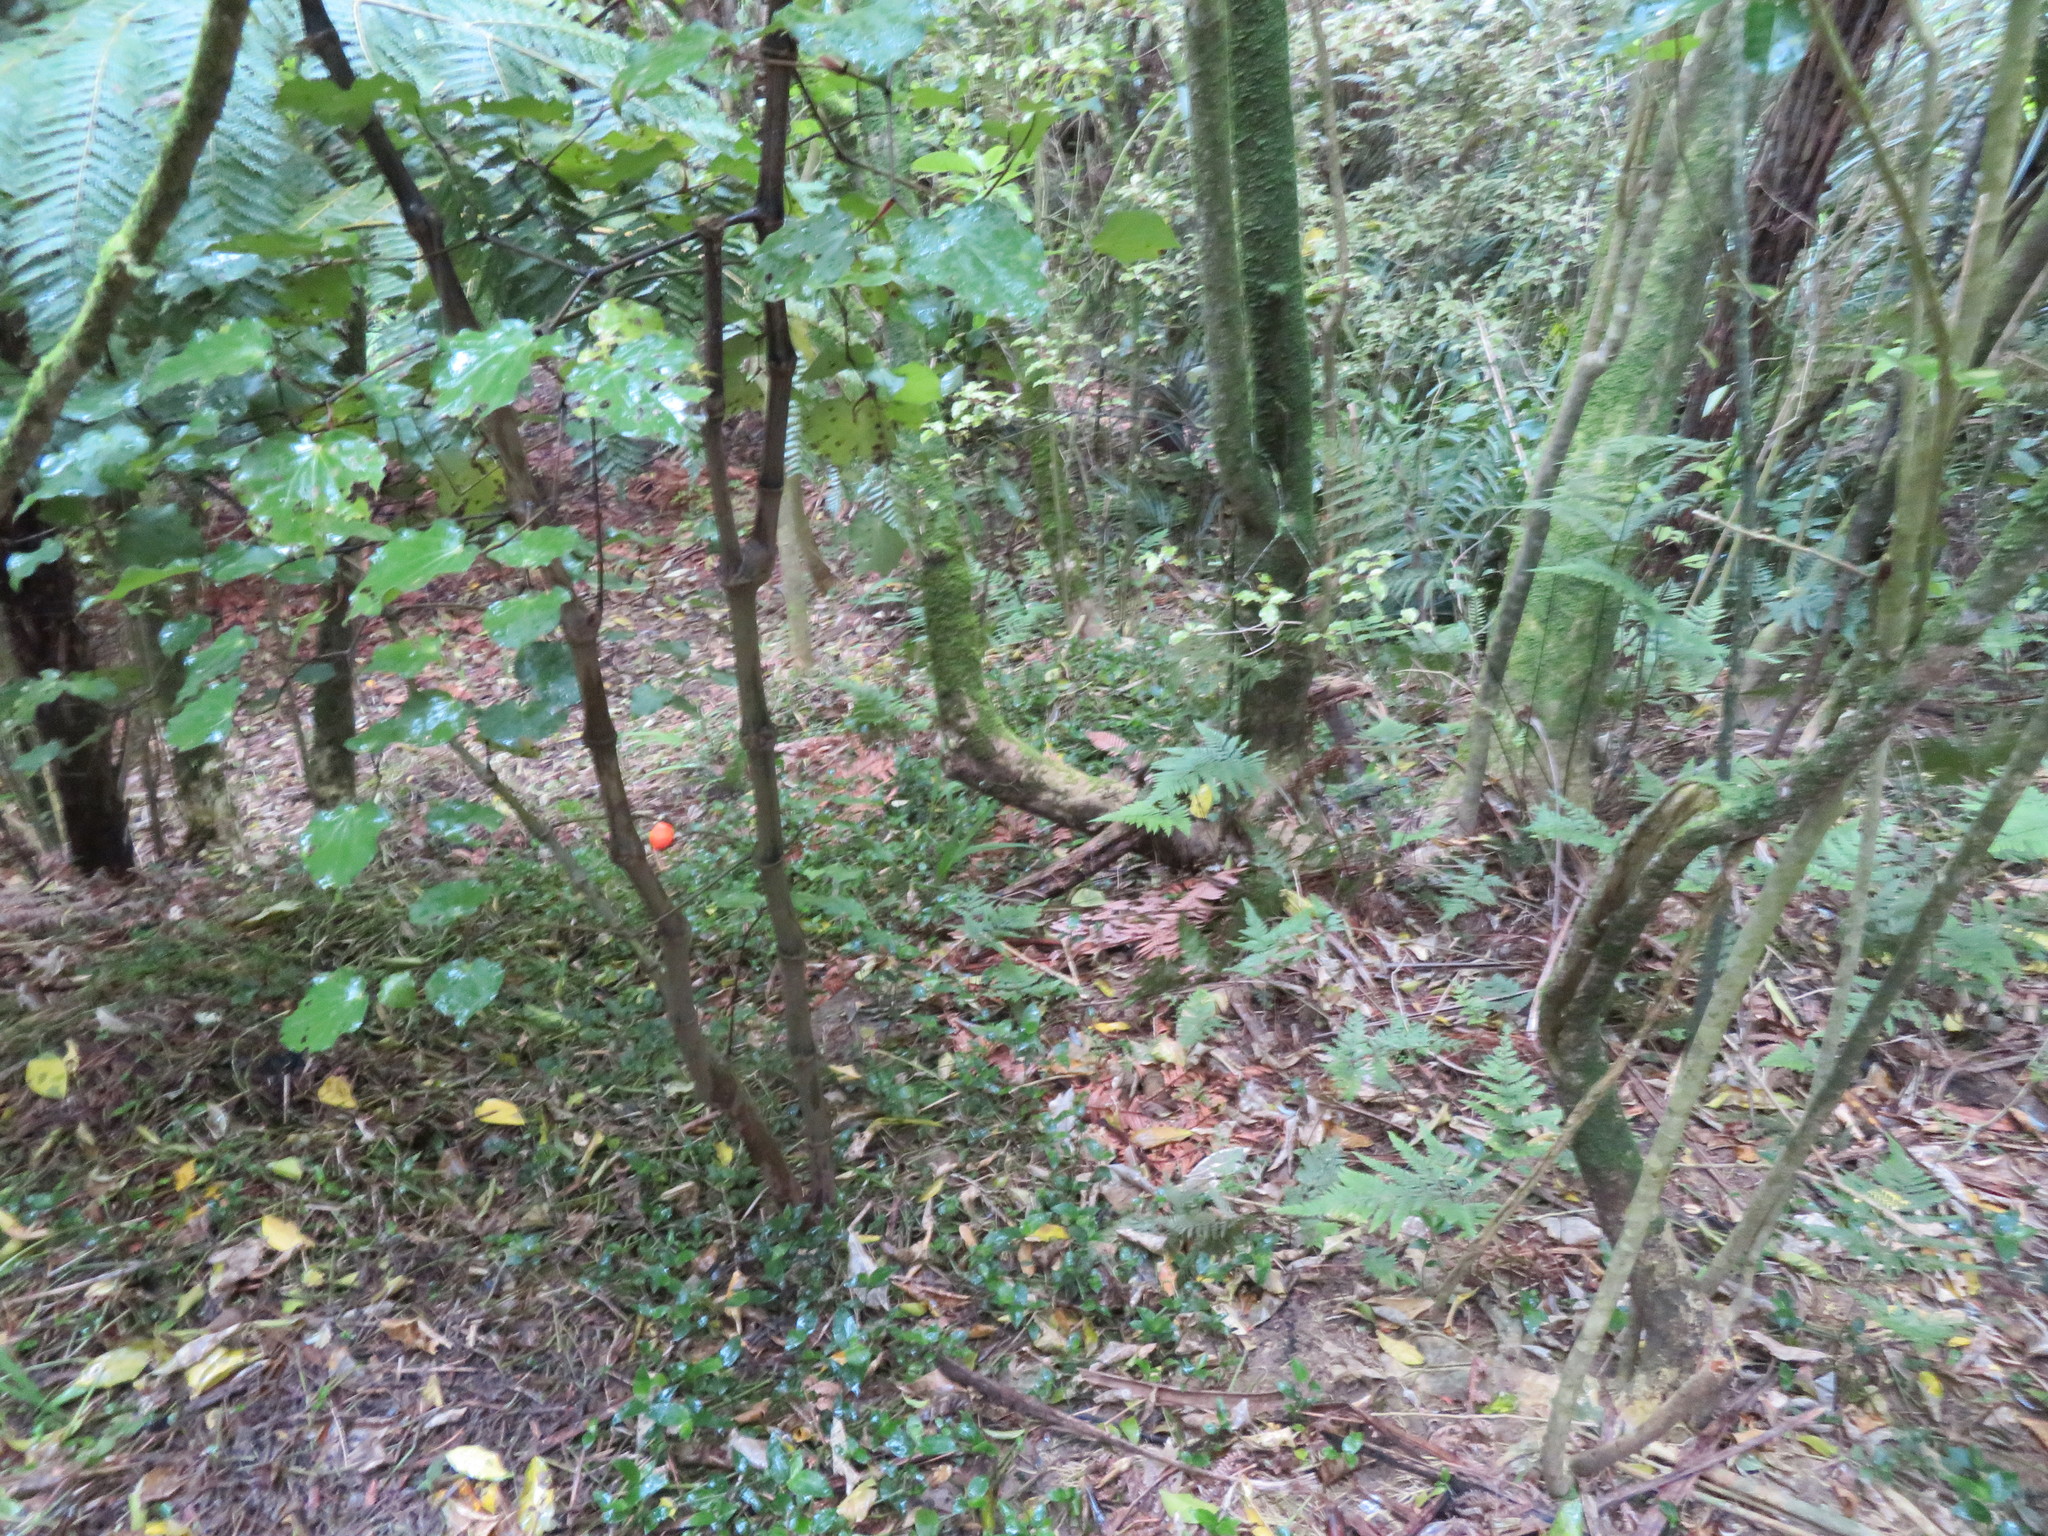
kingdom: Plantae
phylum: Tracheophyta
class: Magnoliopsida
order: Piperales
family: Piperaceae
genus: Macropiper
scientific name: Macropiper excelsum
